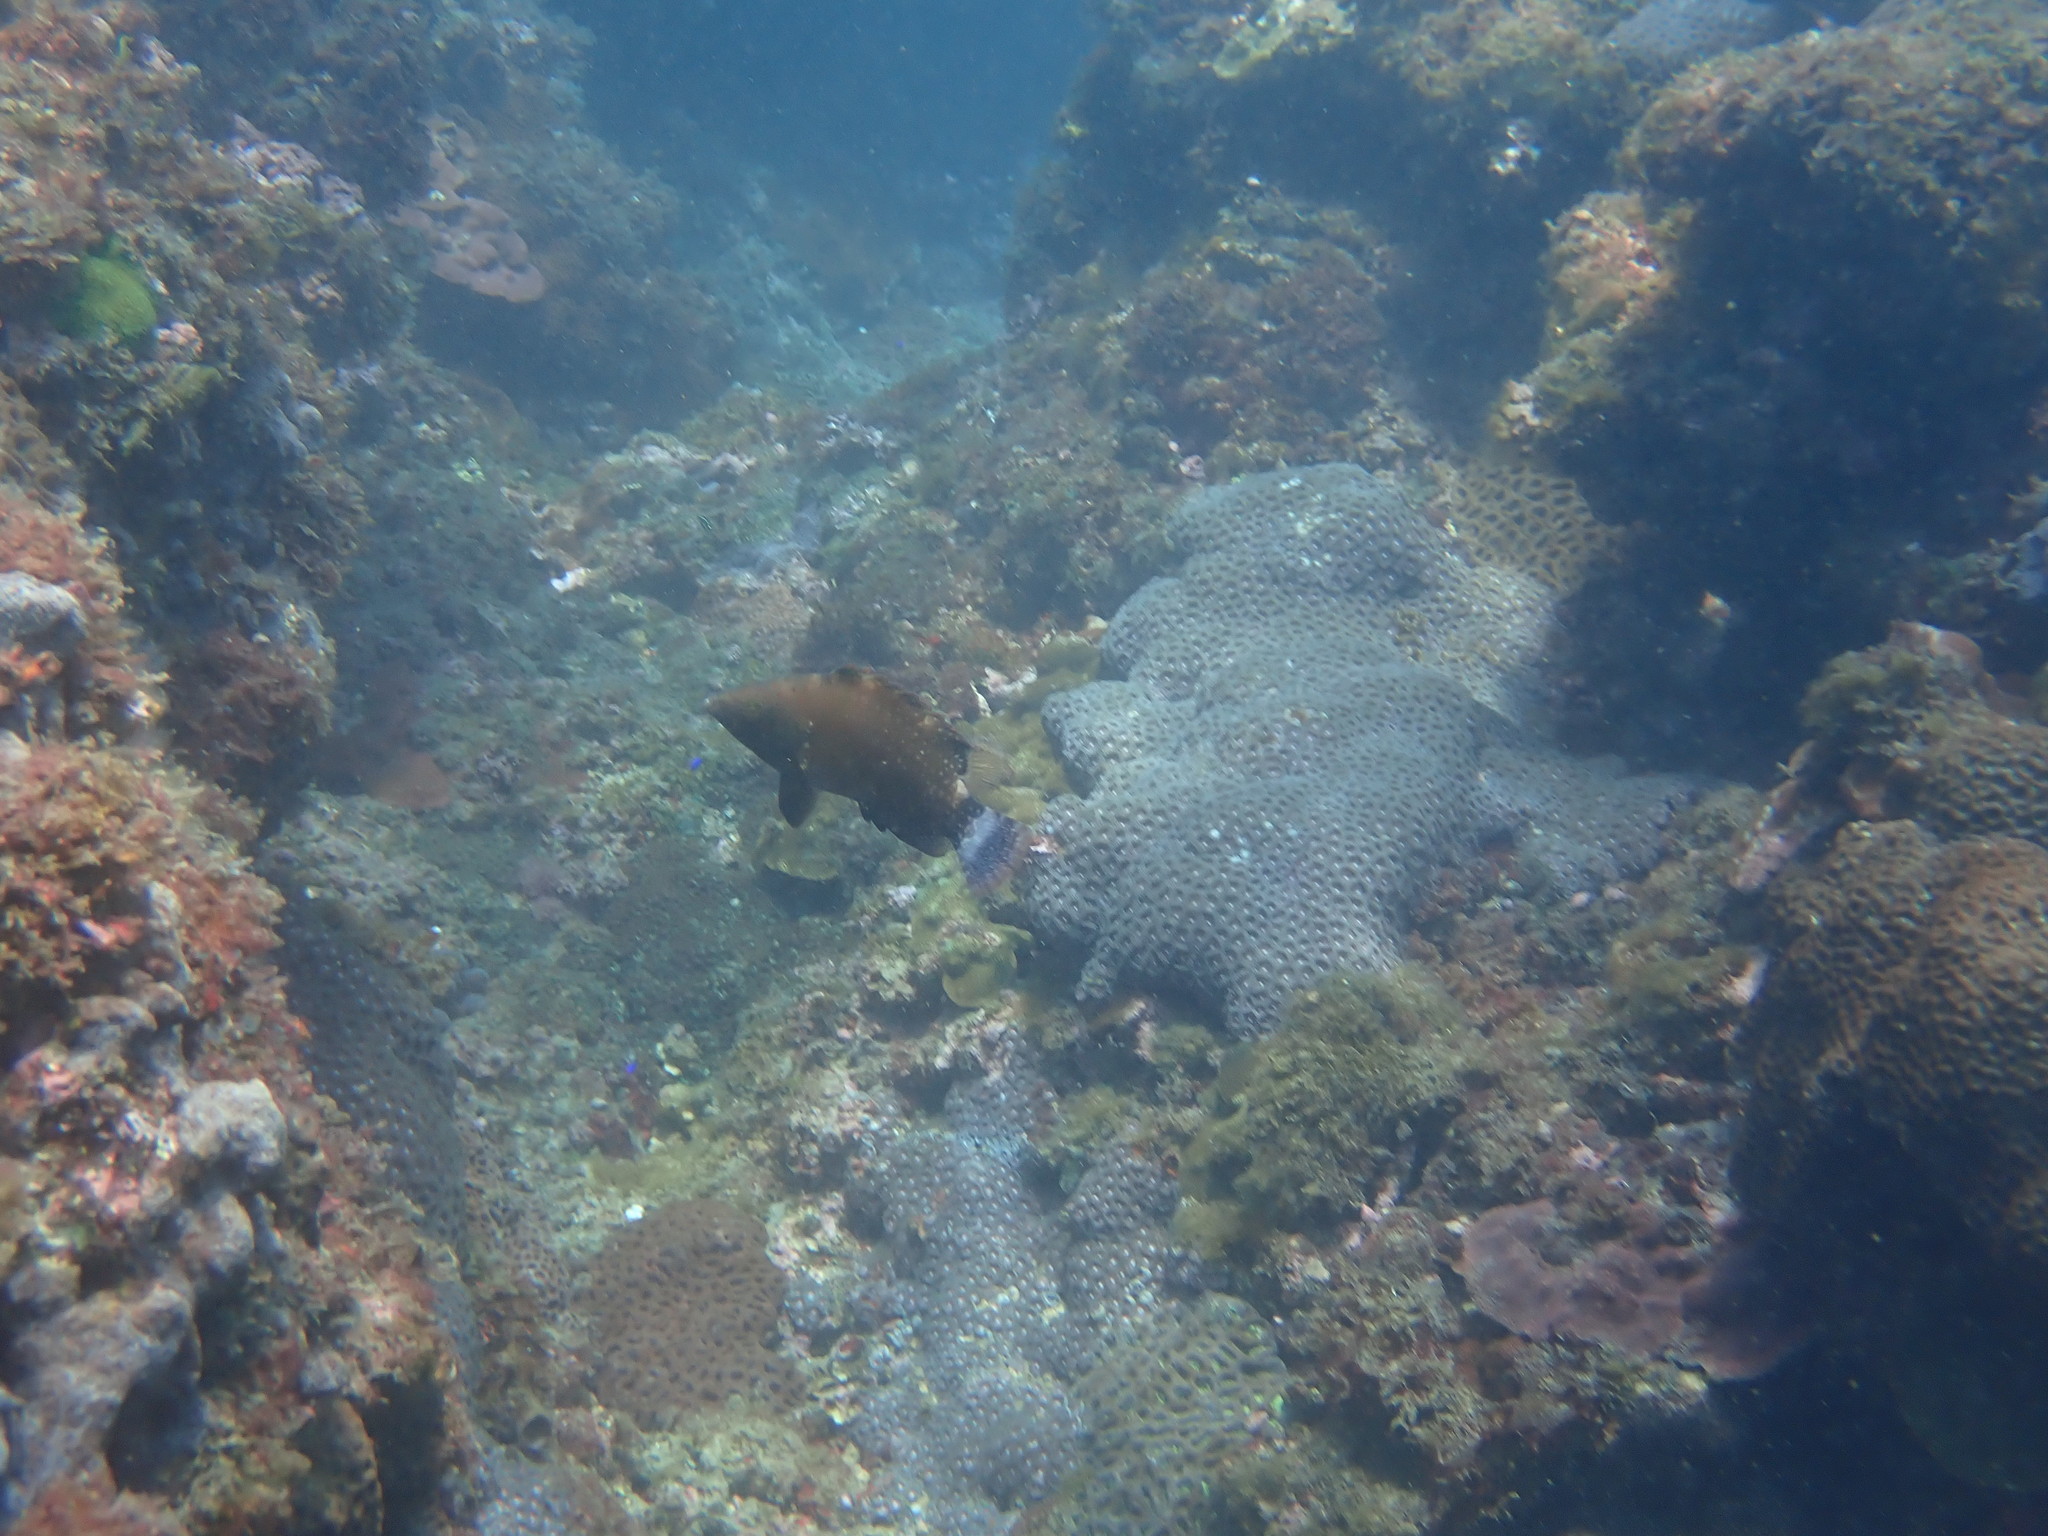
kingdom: Animalia
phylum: Chordata
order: Perciformes
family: Labridae
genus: Cheilinus
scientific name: Cheilinus chlorourus
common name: Floral wrasse
